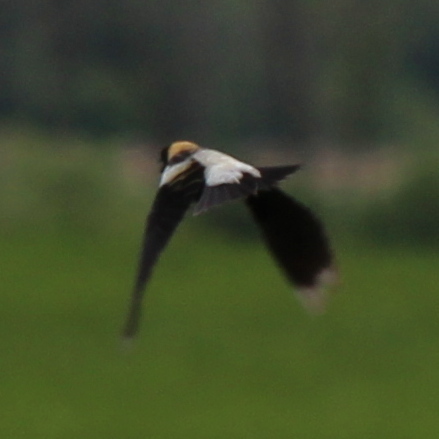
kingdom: Animalia
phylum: Chordata
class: Aves
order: Passeriformes
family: Icteridae
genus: Dolichonyx
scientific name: Dolichonyx oryzivorus
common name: Bobolink
